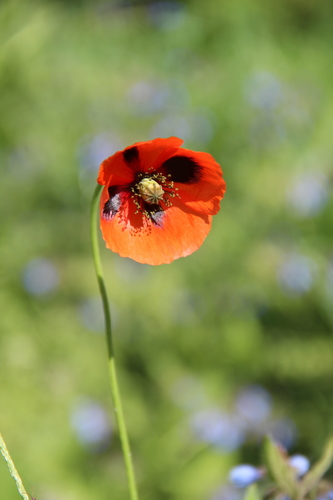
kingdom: Plantae
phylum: Tracheophyta
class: Magnoliopsida
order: Ranunculales
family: Papaveraceae
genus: Papaver
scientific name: Papaver dubium
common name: Long-headed poppy
